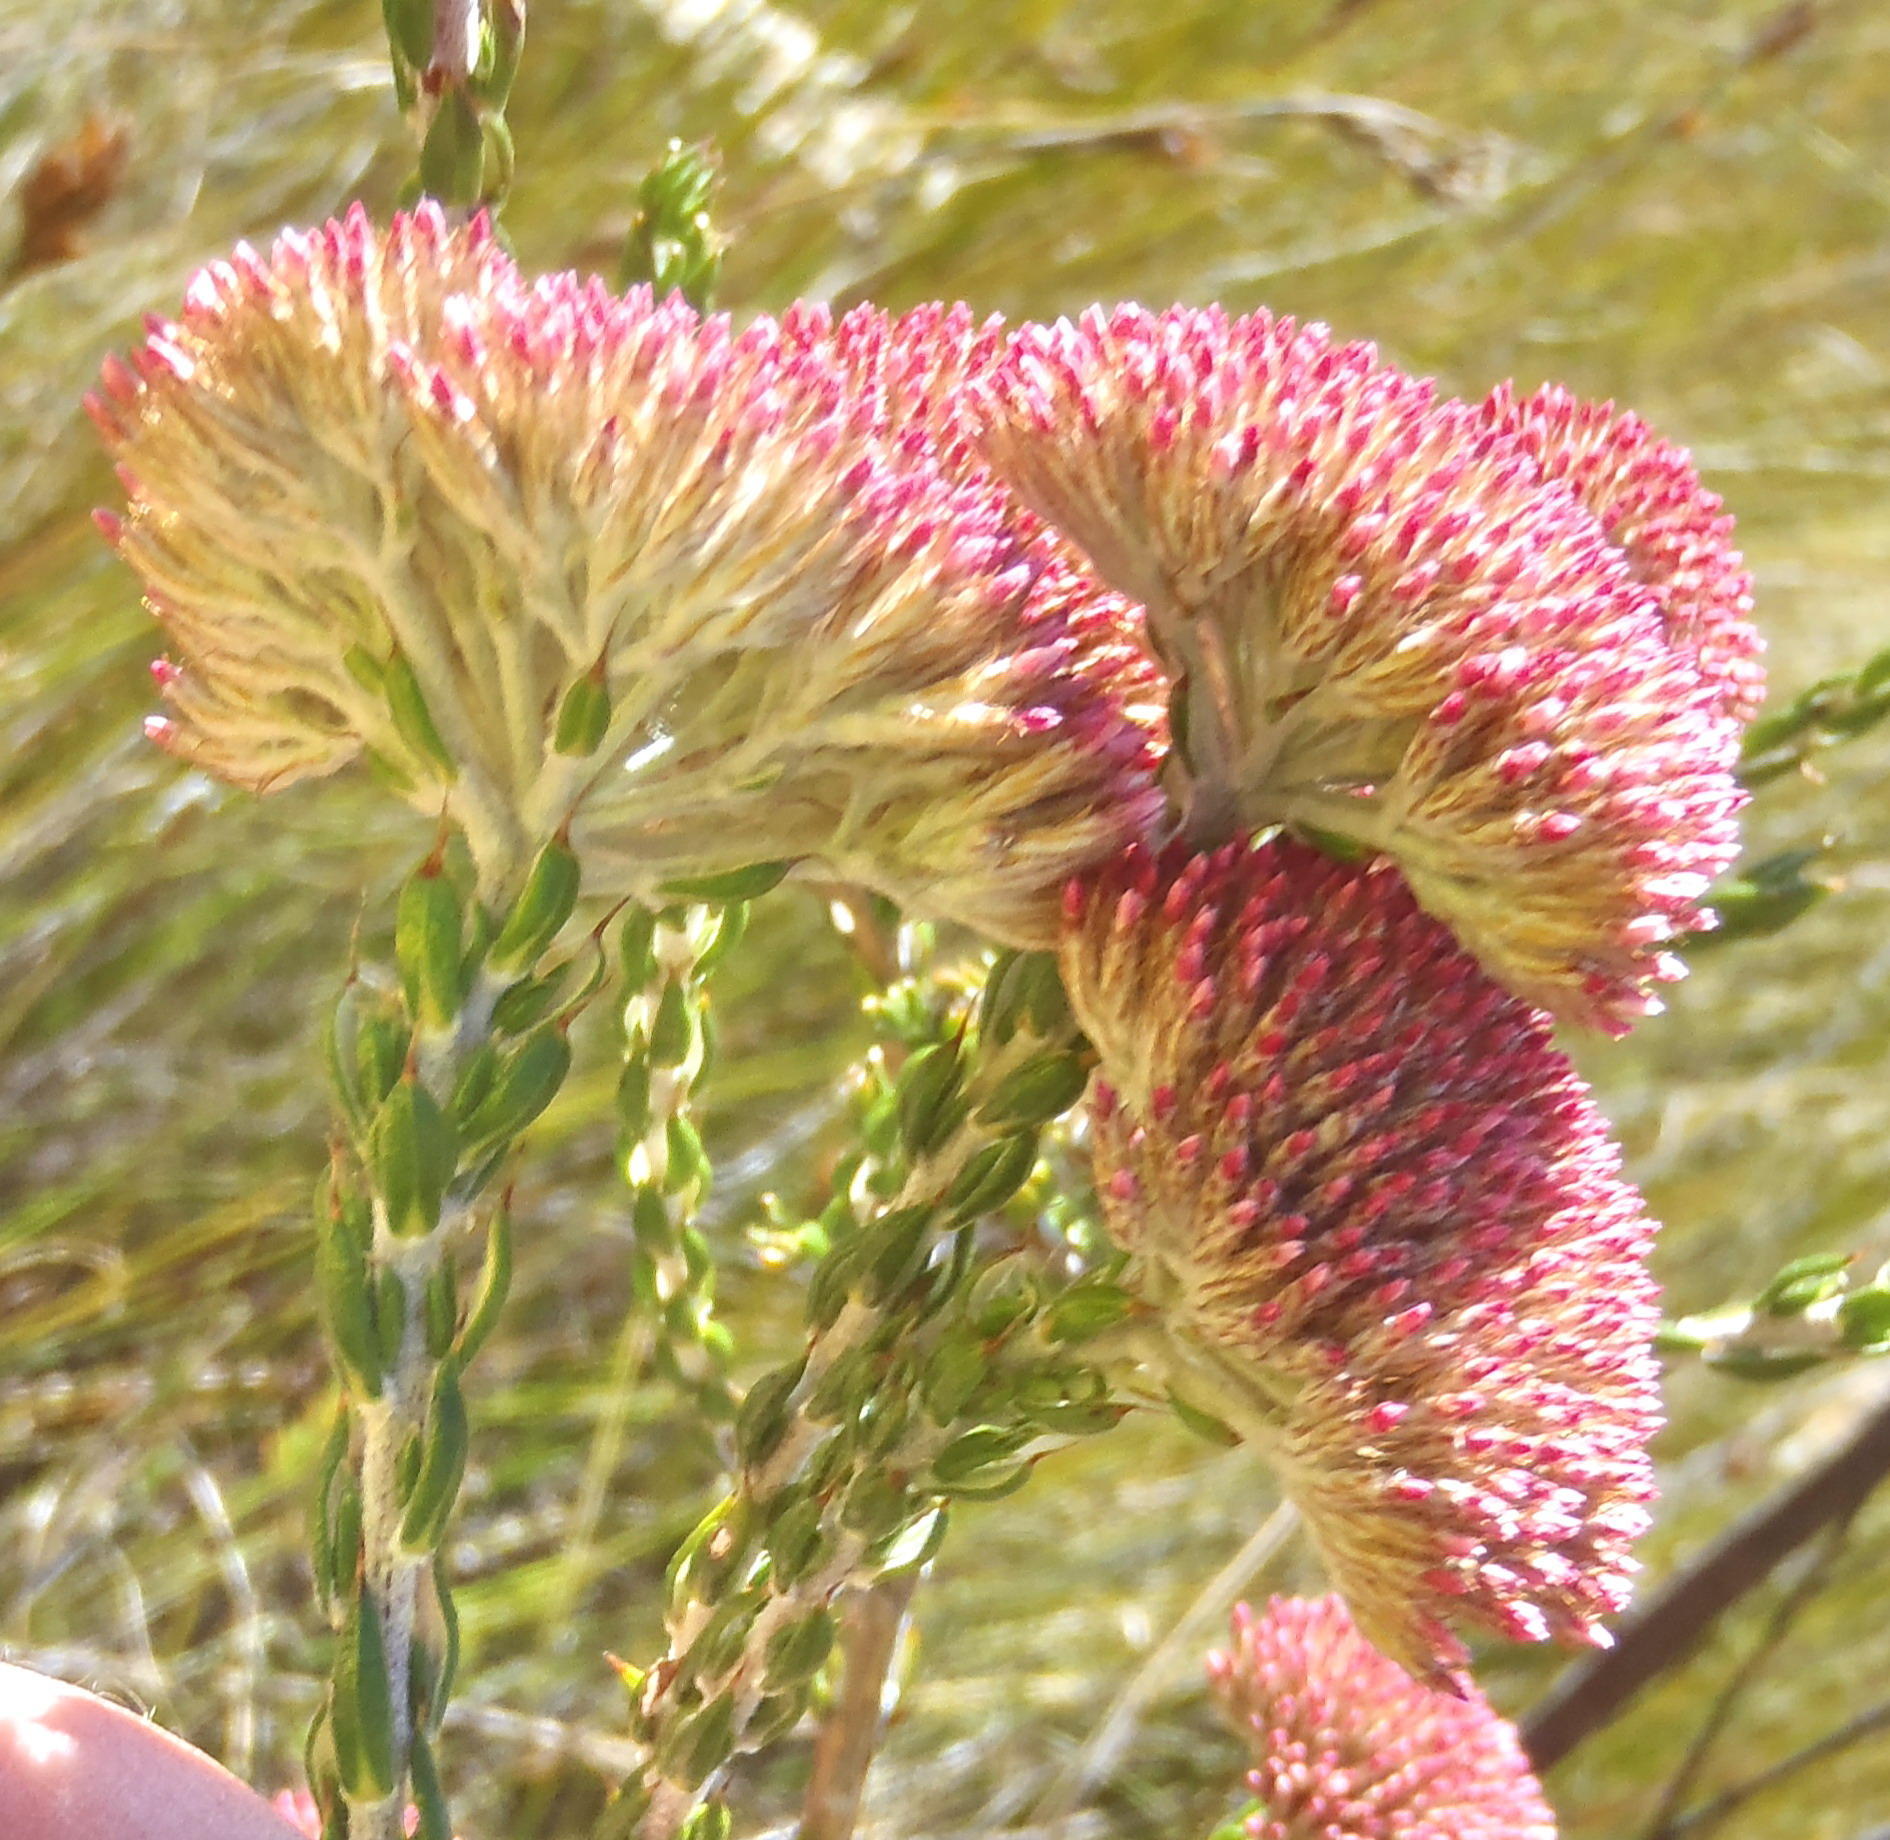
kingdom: Plantae
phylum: Tracheophyta
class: Magnoliopsida
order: Asterales
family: Asteraceae
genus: Metalasia
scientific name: Metalasia pungens
